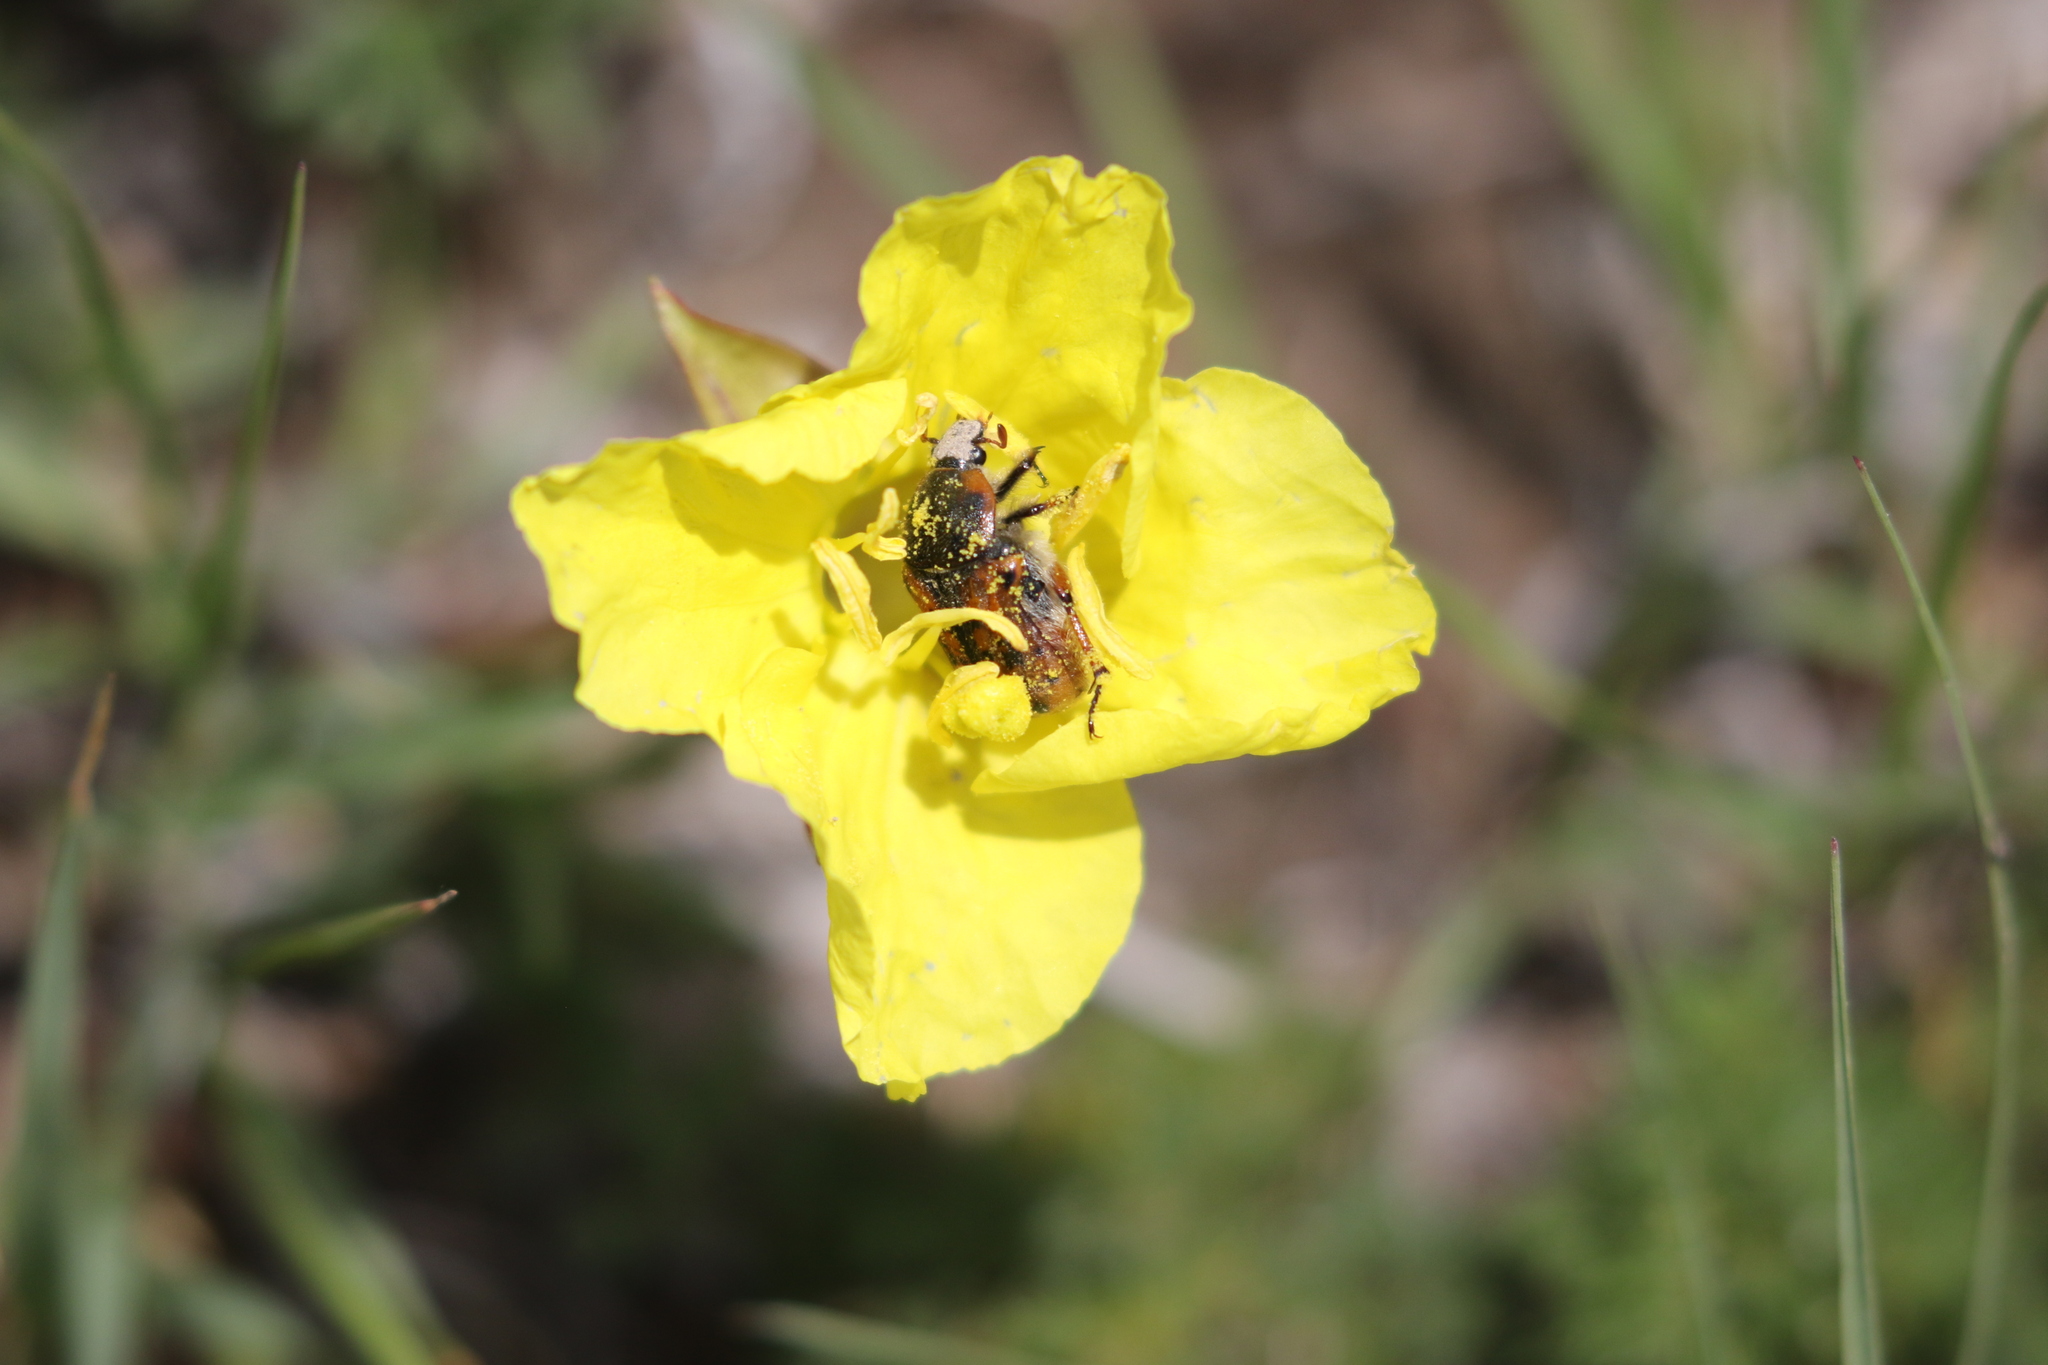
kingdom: Animalia
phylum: Arthropoda
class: Insecta
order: Coleoptera
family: Scarabaeidae
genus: Euphoria
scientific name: Euphoria kernii
